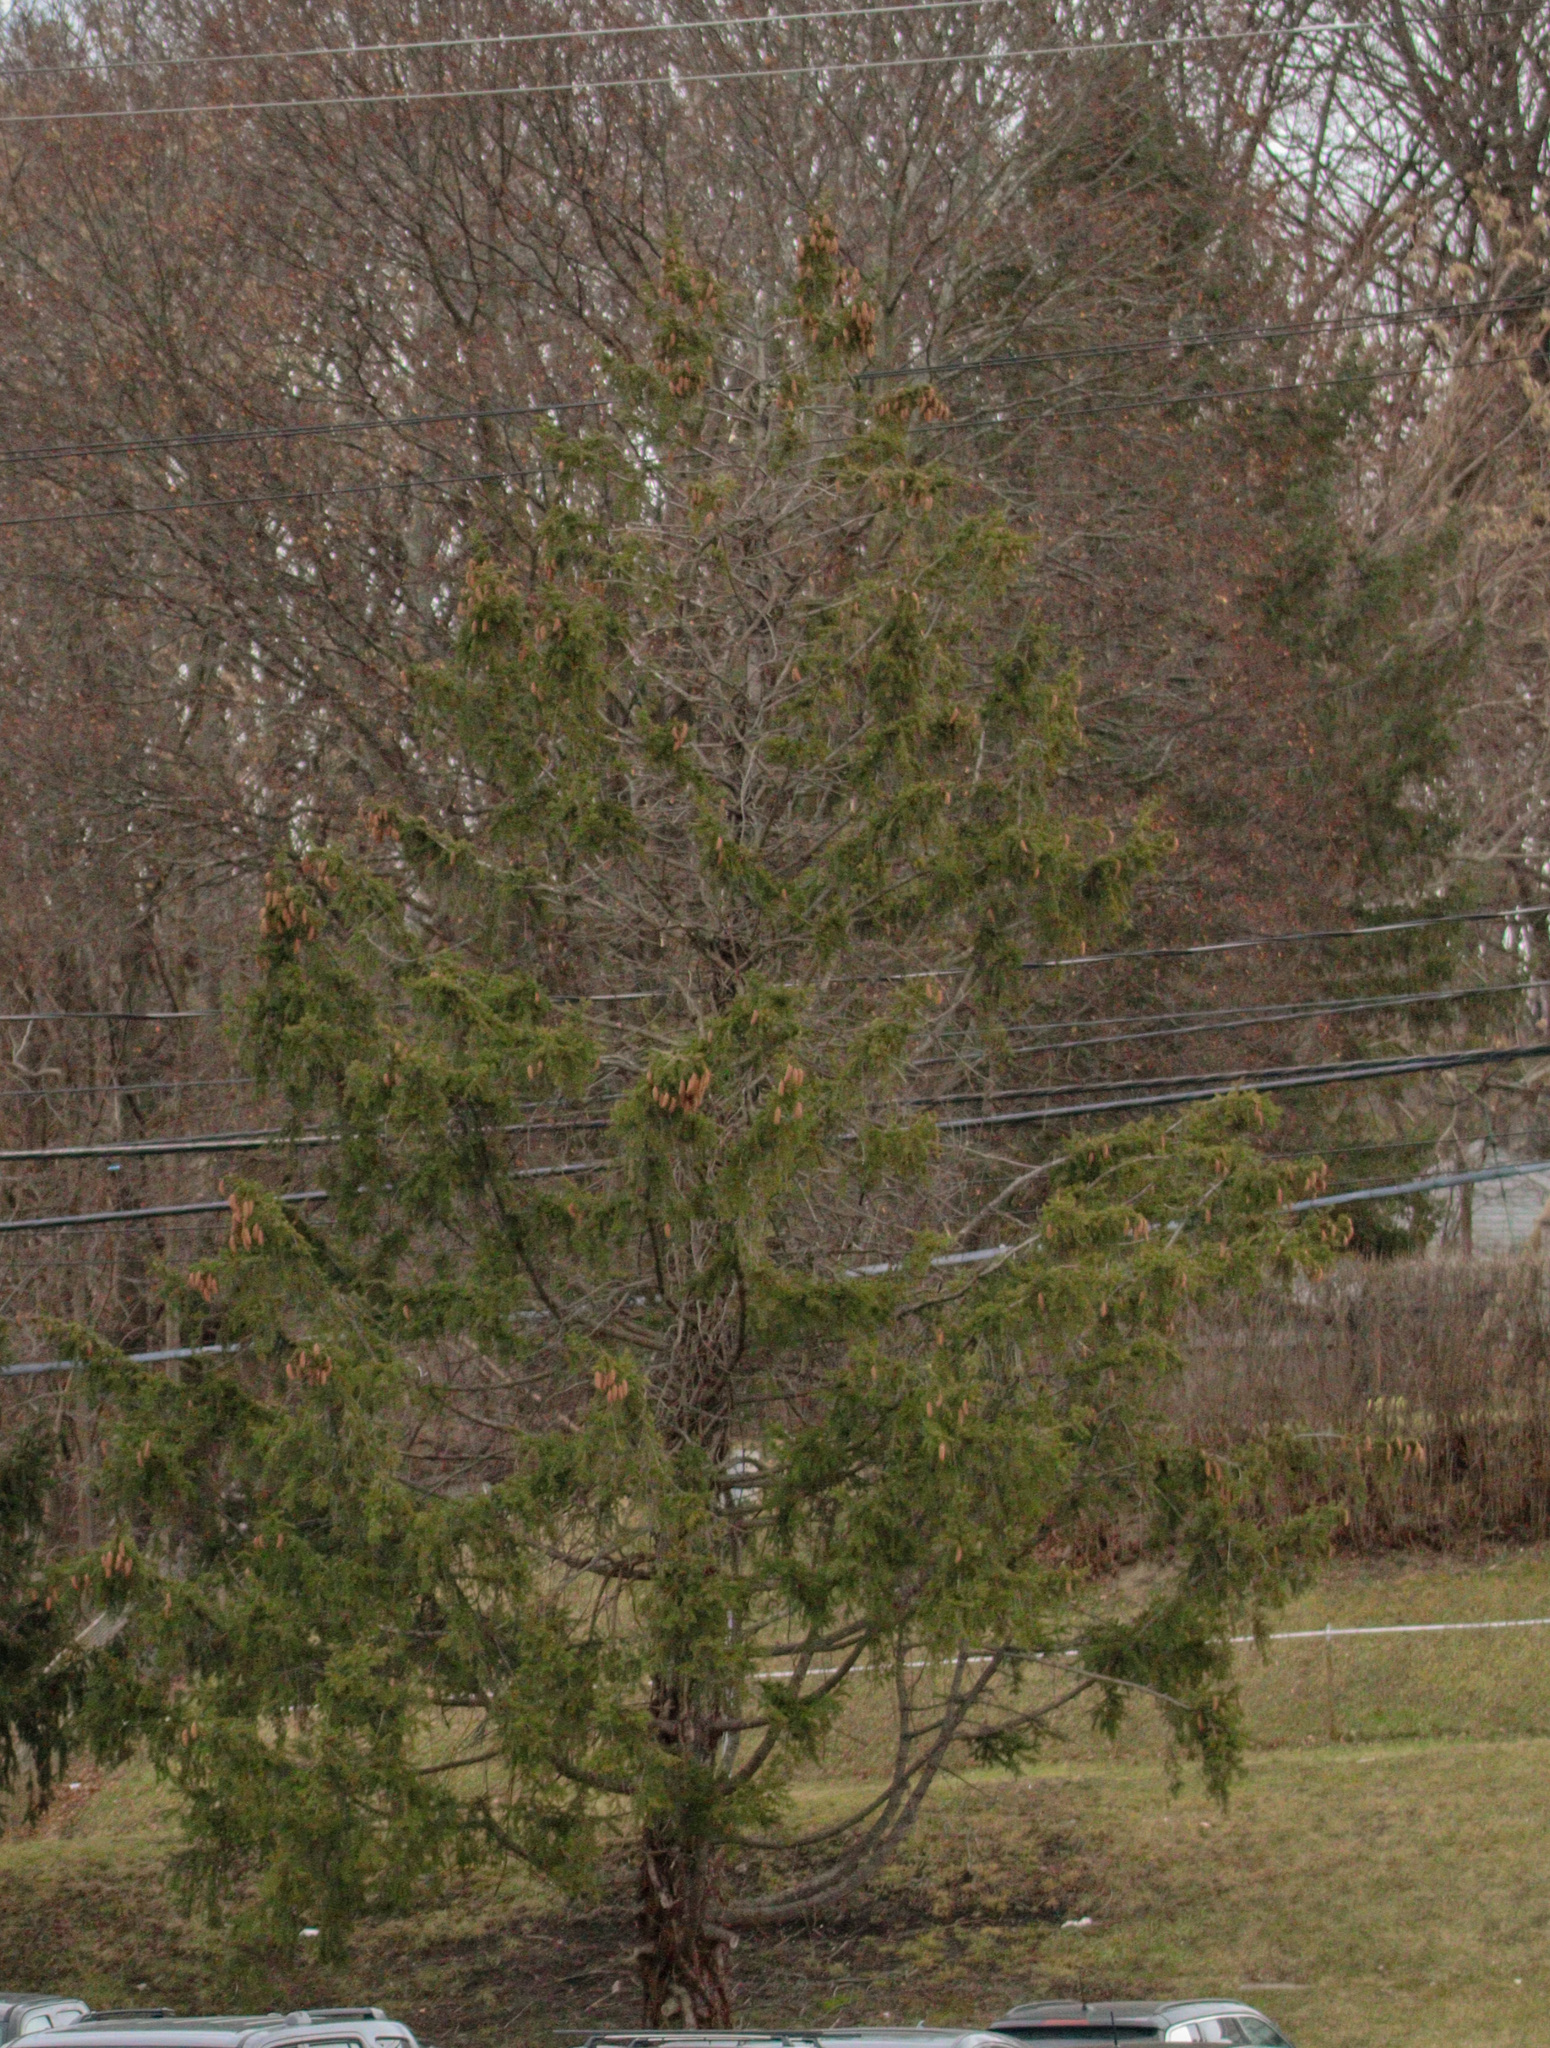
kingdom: Plantae
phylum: Tracheophyta
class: Pinopsida
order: Pinales
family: Pinaceae
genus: Picea
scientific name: Picea abies
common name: Norway spruce
